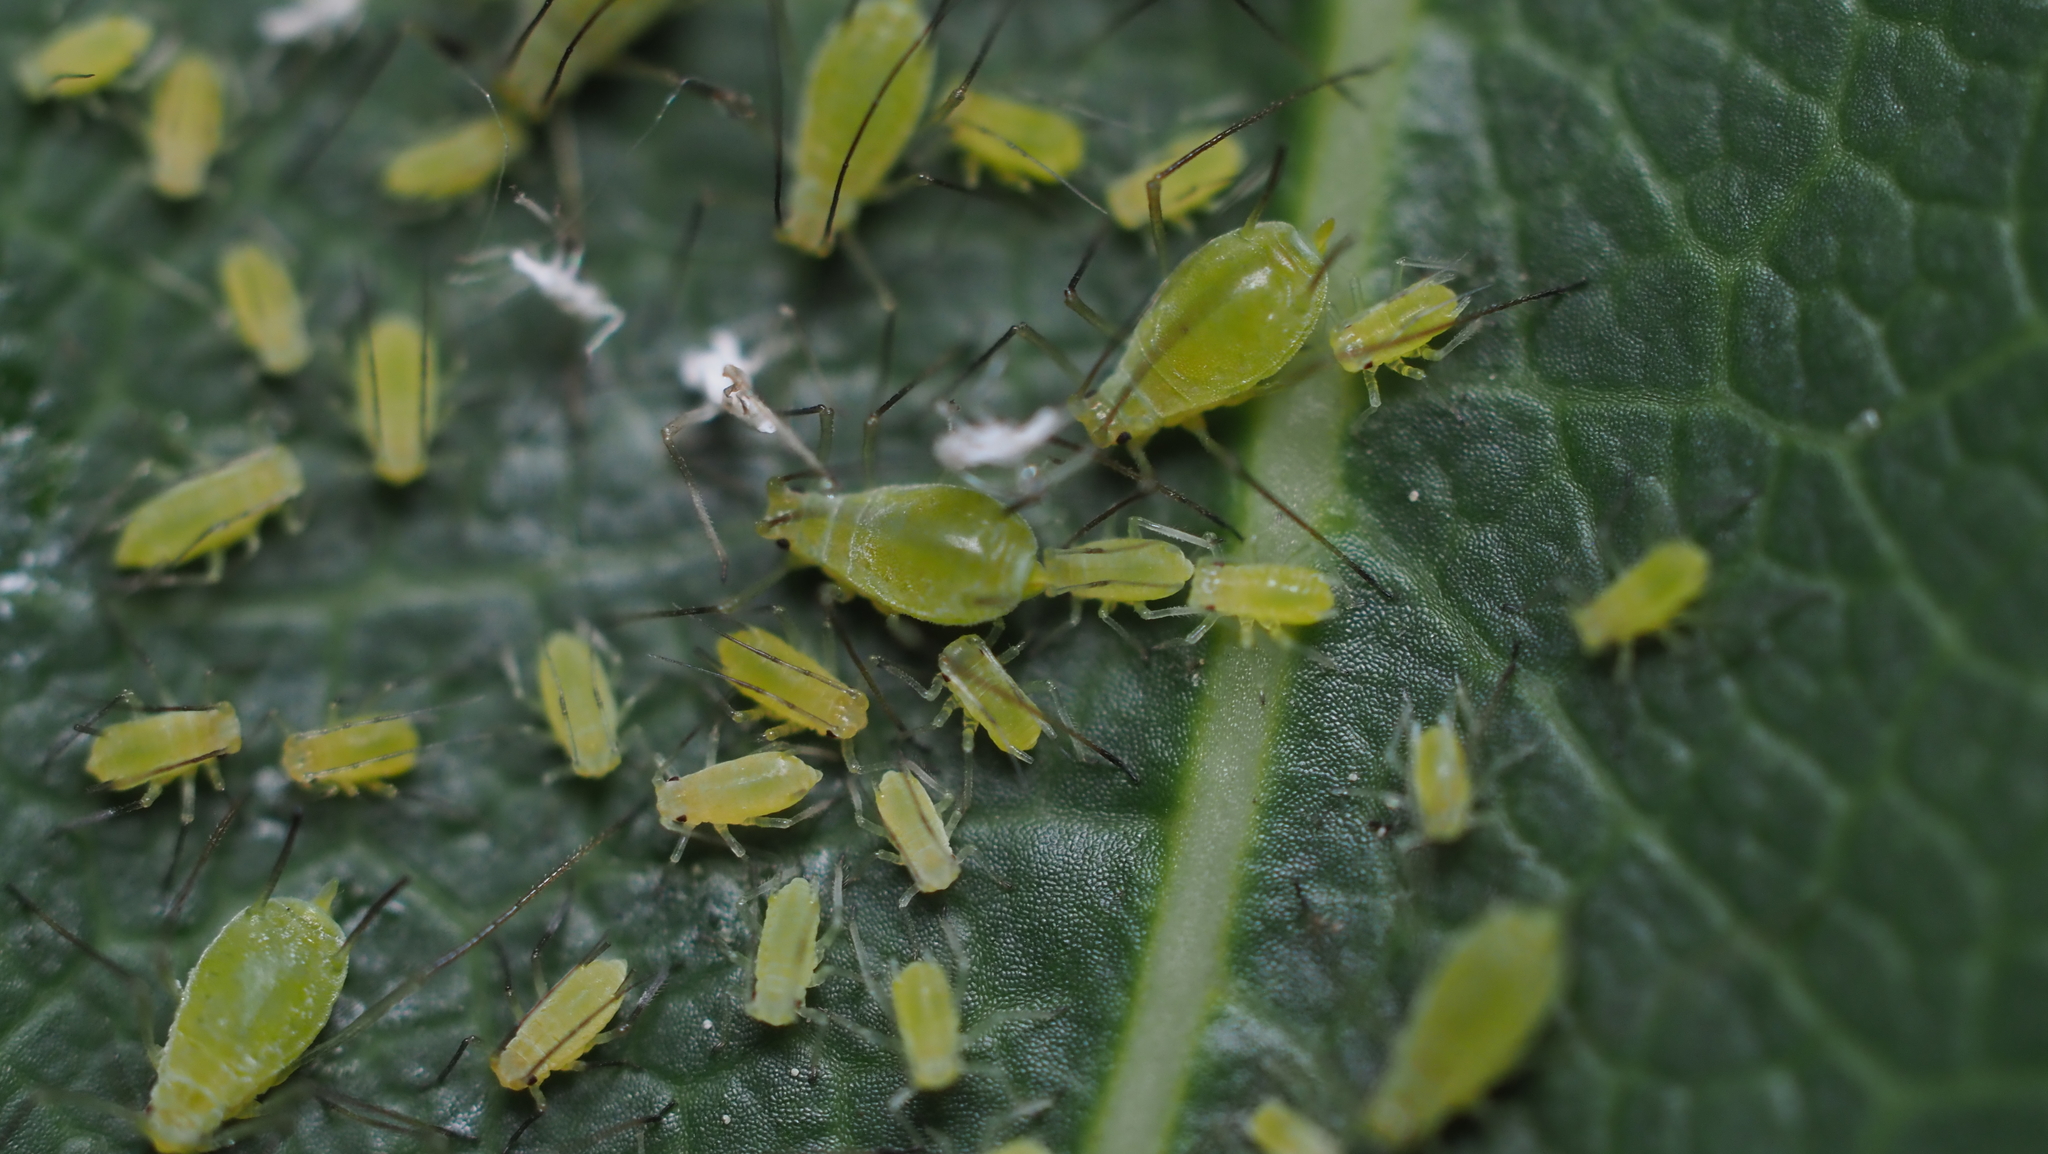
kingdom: Animalia
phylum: Arthropoda
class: Insecta
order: Hemiptera
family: Aphididae
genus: Illinoia
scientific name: Illinoia liriodendri
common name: Tuliptree aphid
